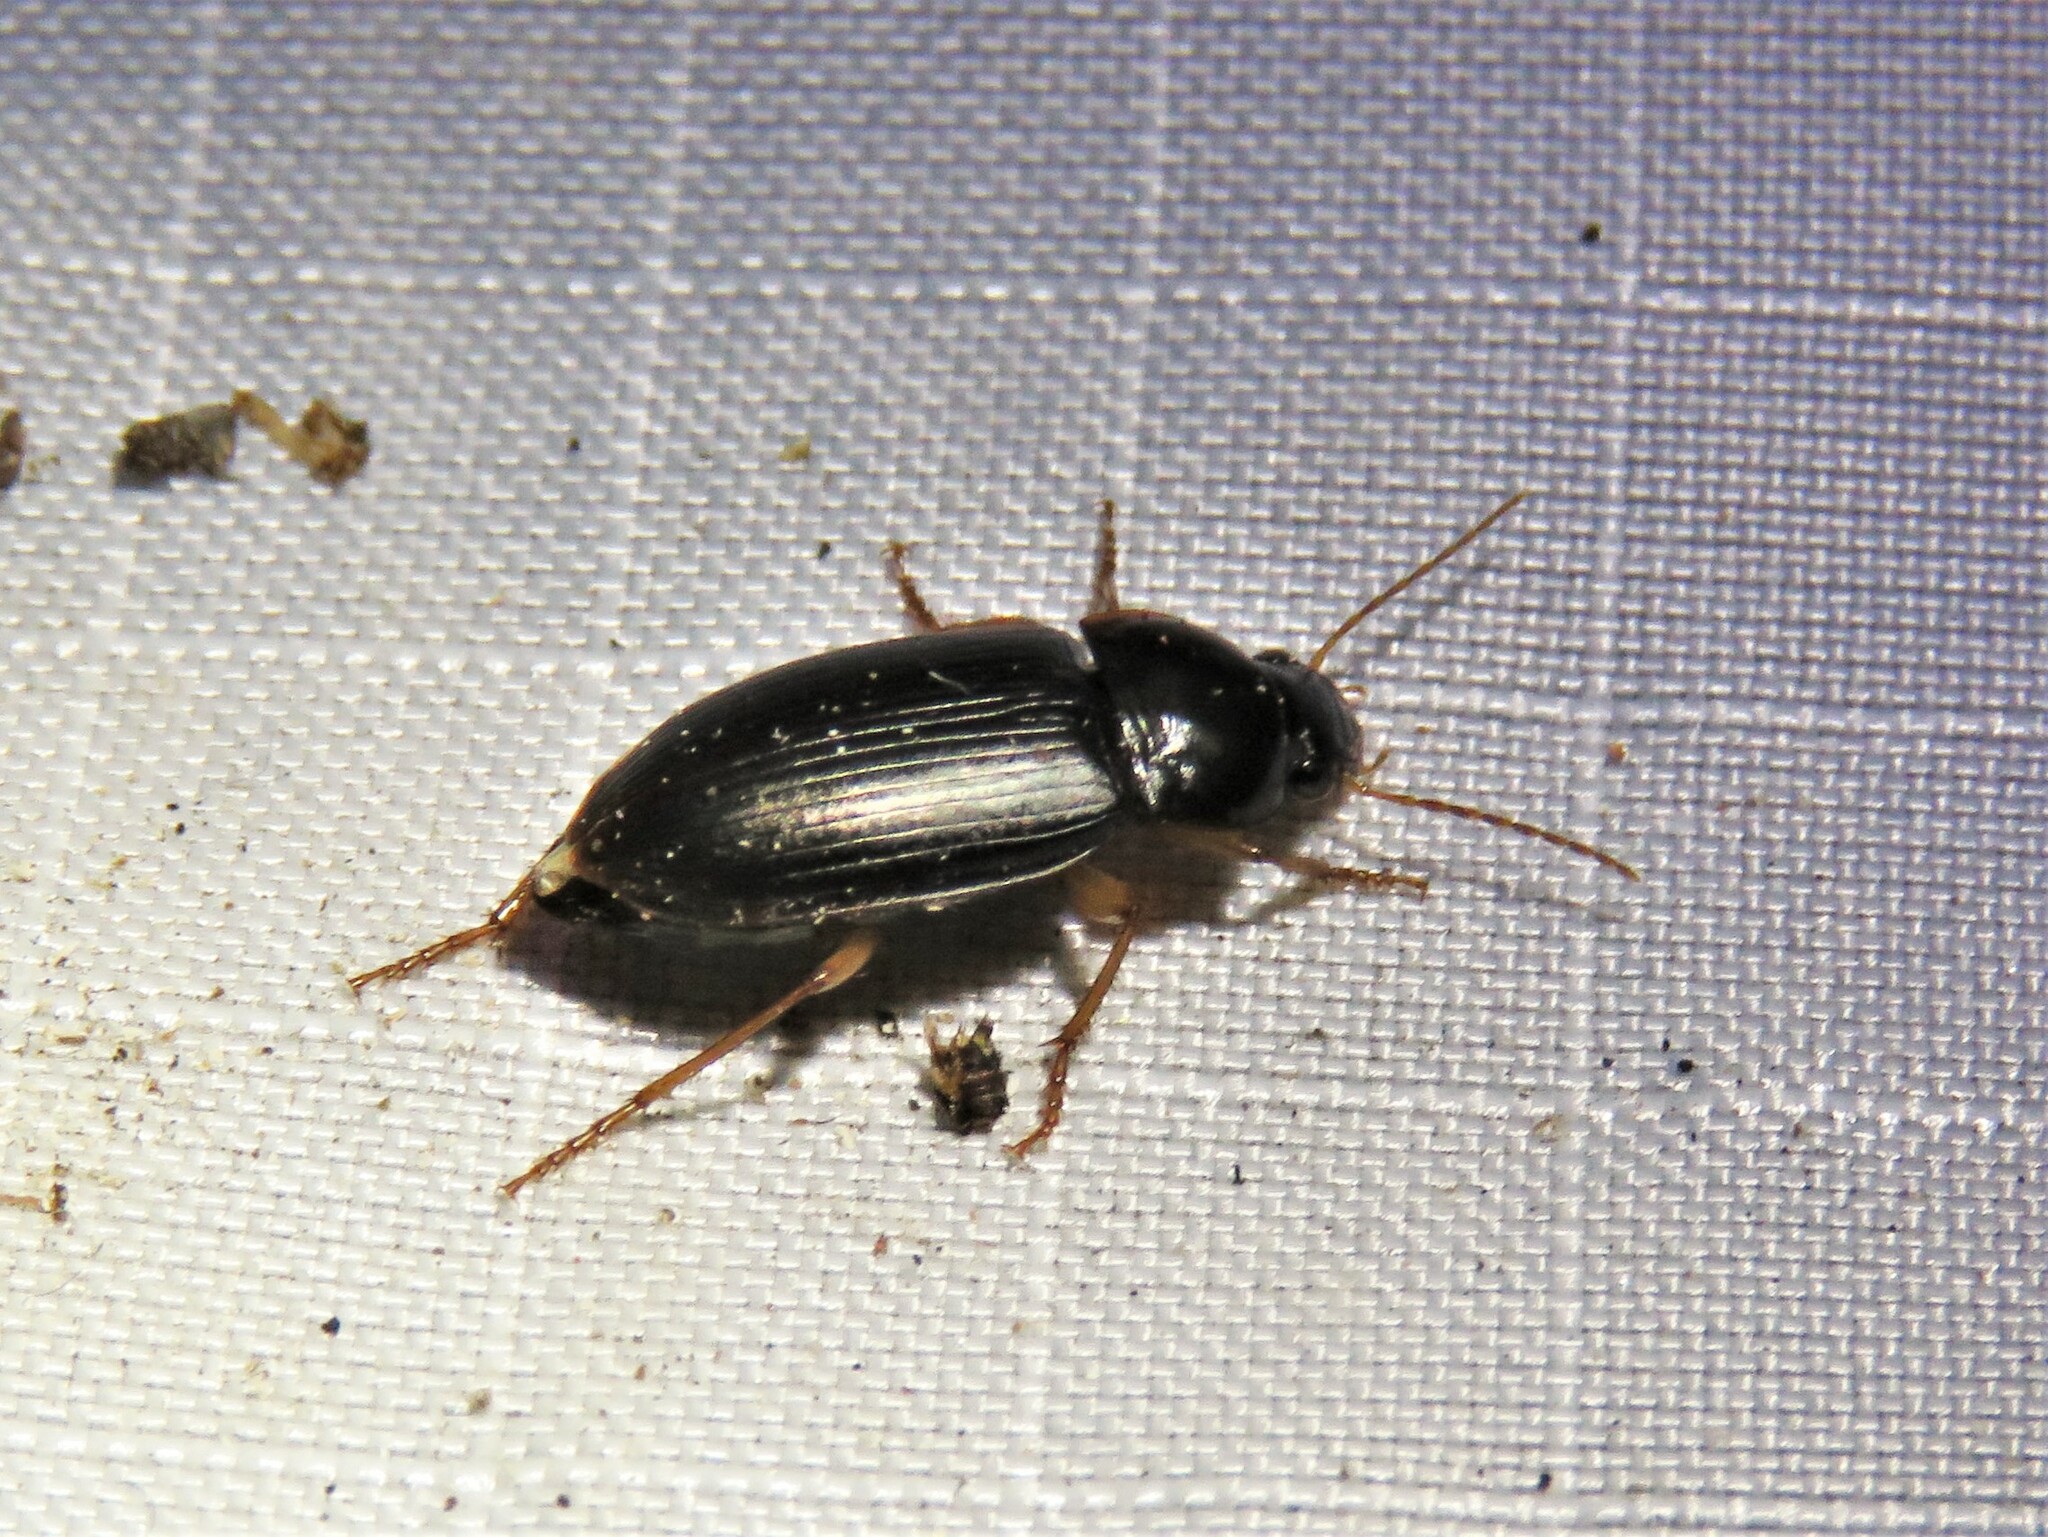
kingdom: Animalia
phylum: Arthropoda
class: Insecta
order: Coleoptera
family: Carabidae
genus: Notiobia
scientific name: Notiobia terminata
